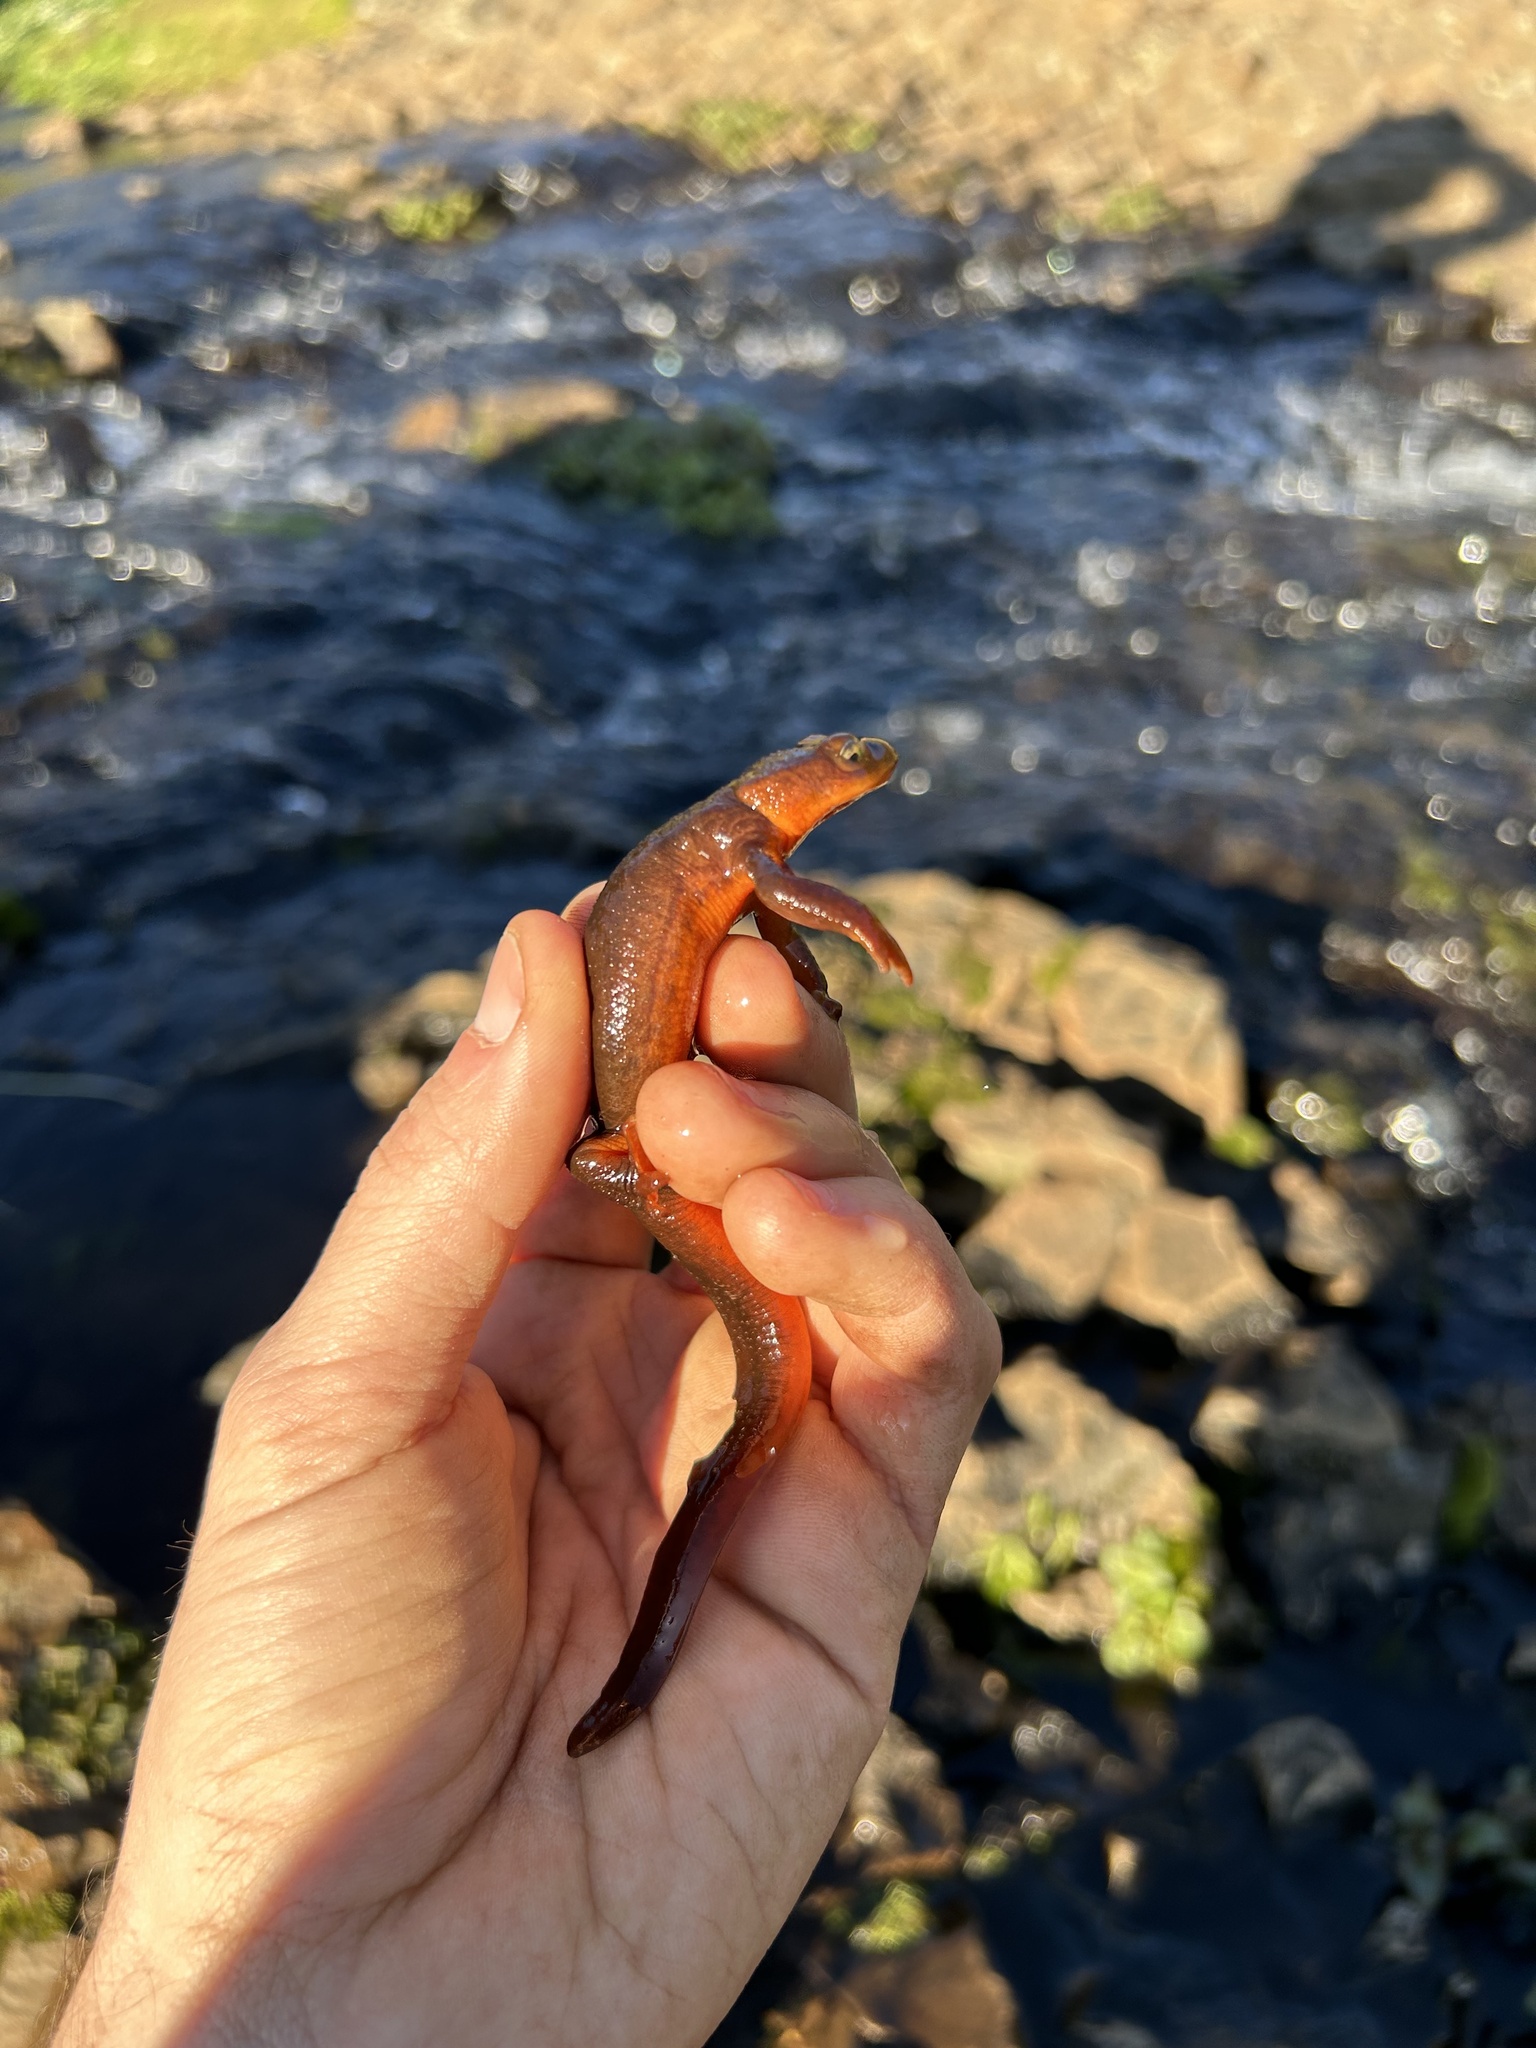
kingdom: Animalia
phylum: Chordata
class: Amphibia
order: Caudata
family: Salamandridae
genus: Taricha
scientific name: Taricha sierrae
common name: Sierra newt
